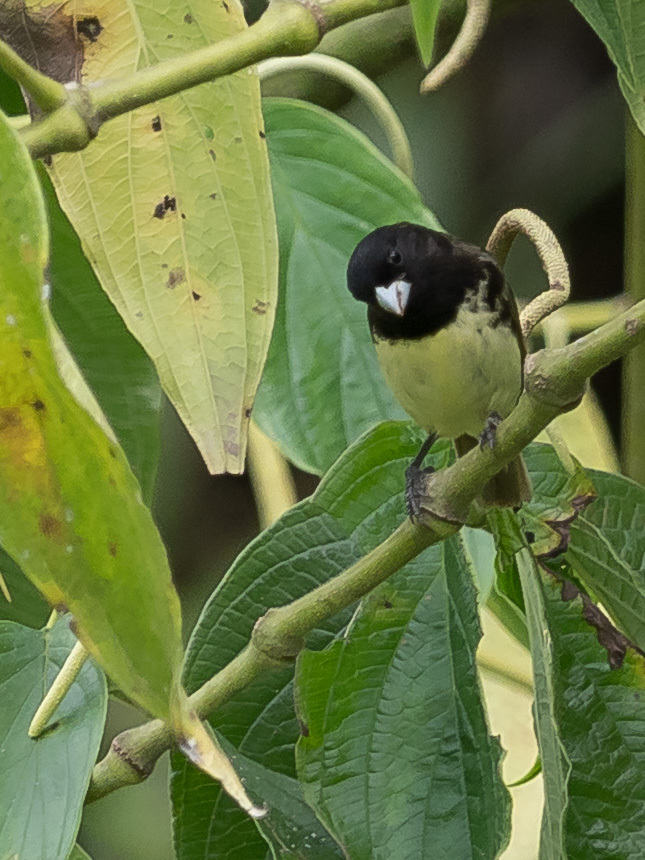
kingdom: Animalia
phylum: Chordata
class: Aves
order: Passeriformes
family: Thraupidae
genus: Sporophila
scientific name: Sporophila nigricollis
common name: Yellow-bellied seedeater
